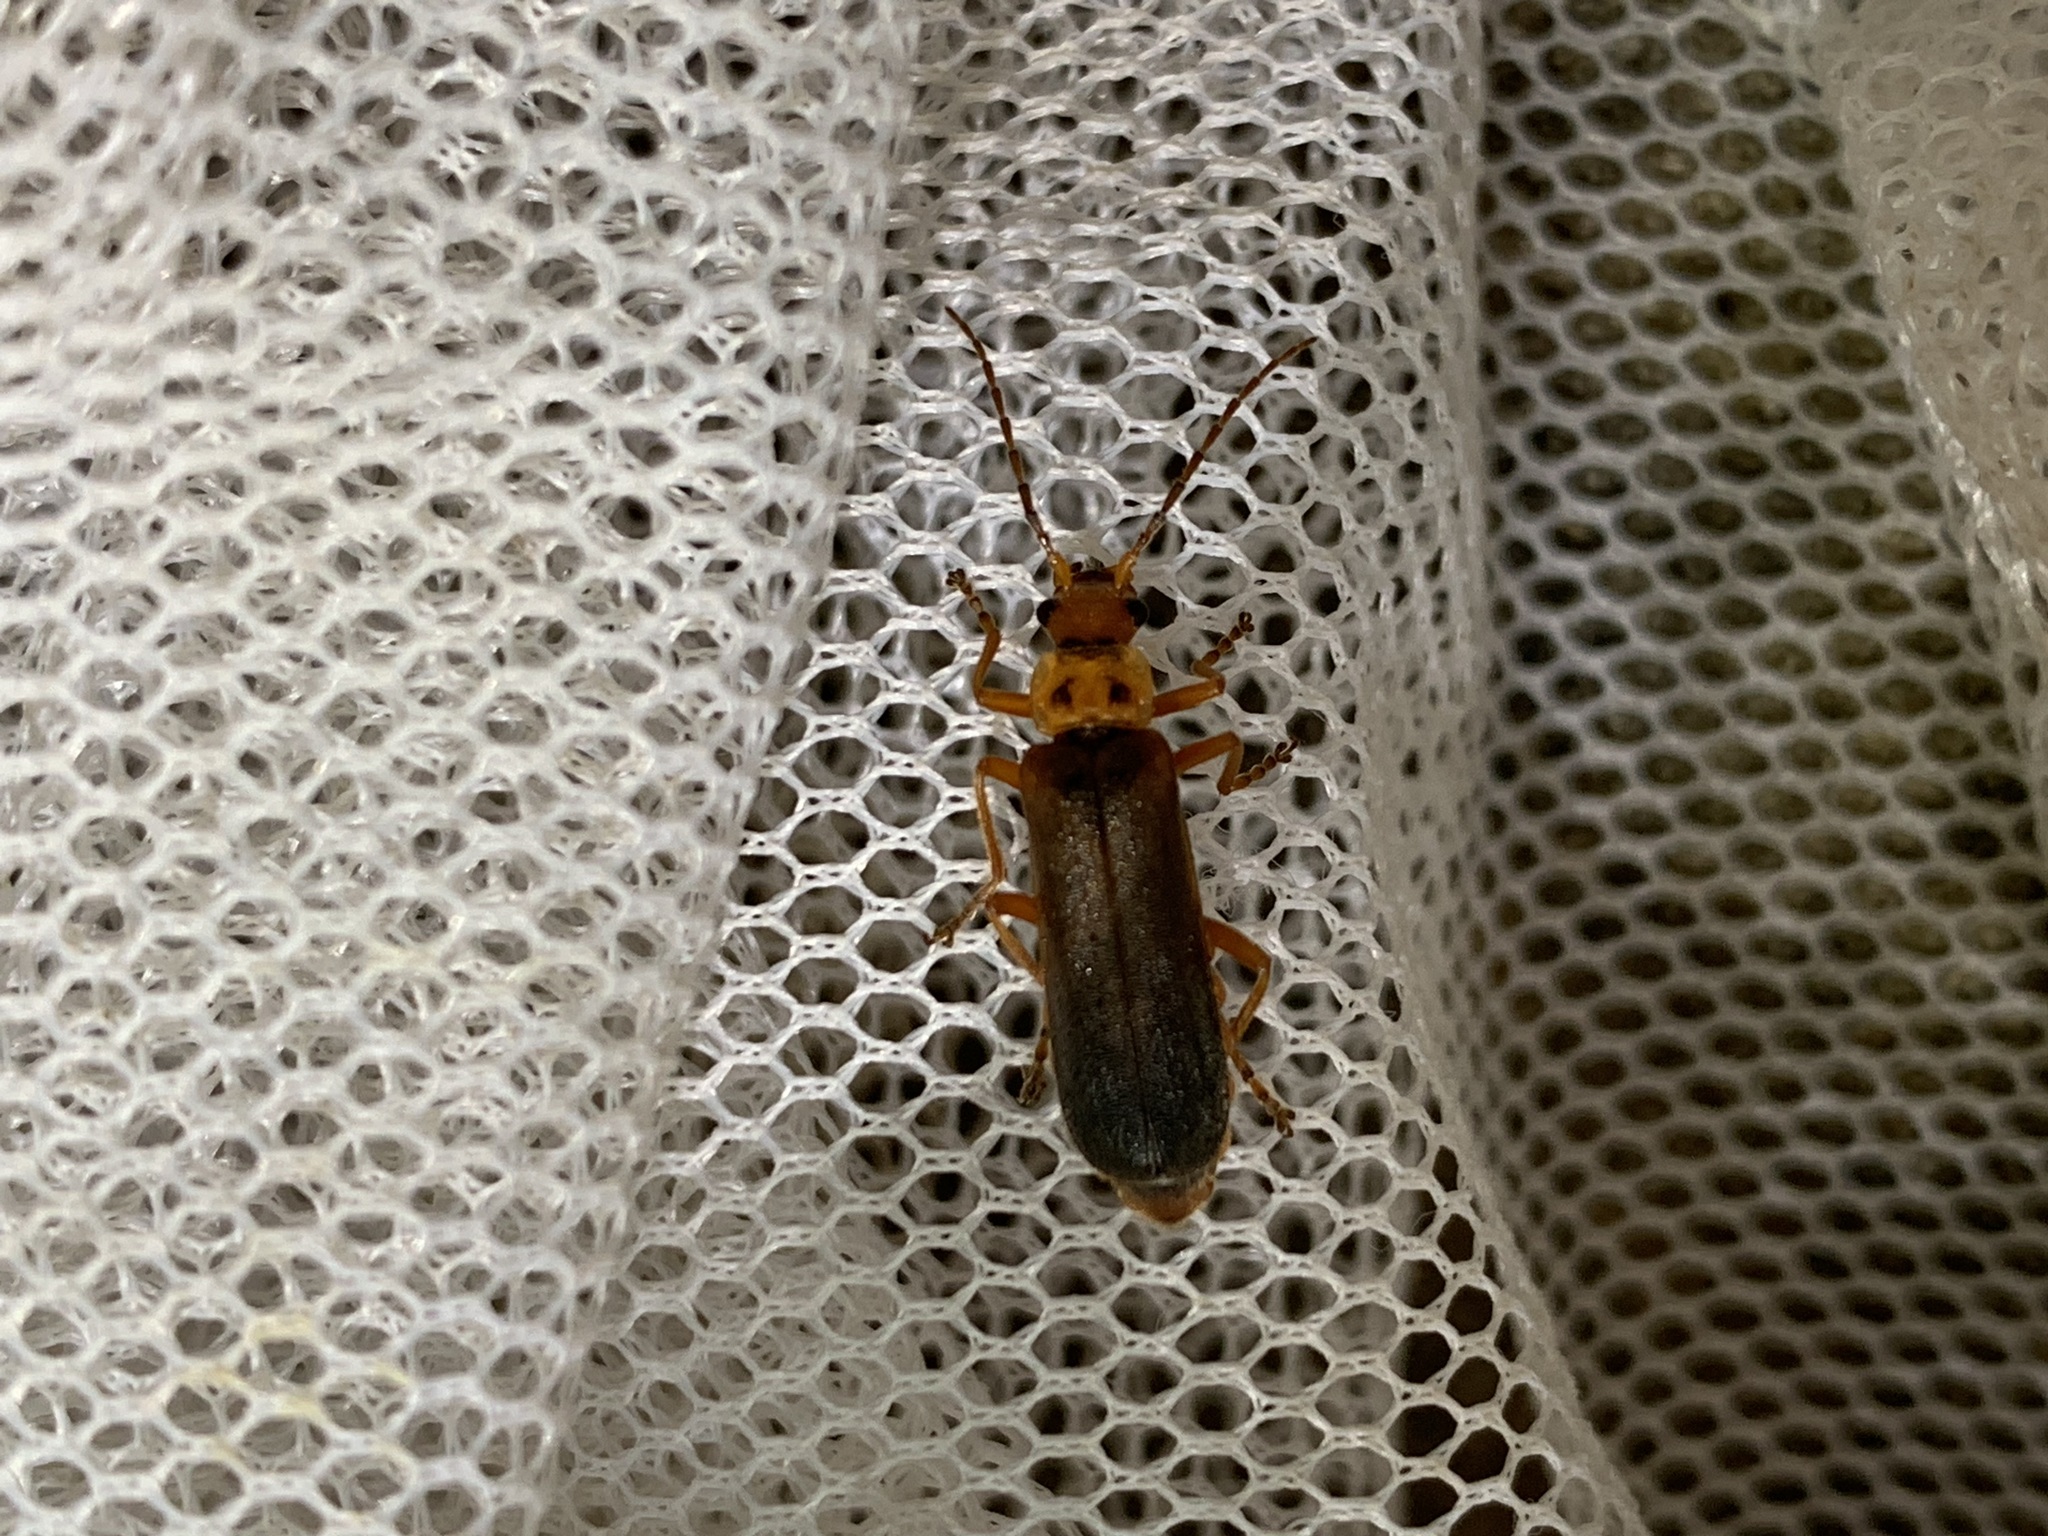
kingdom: Animalia
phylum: Arthropoda
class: Insecta
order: Coleoptera
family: Cantharidae
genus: Podabrus
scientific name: Podabrus binotatus
